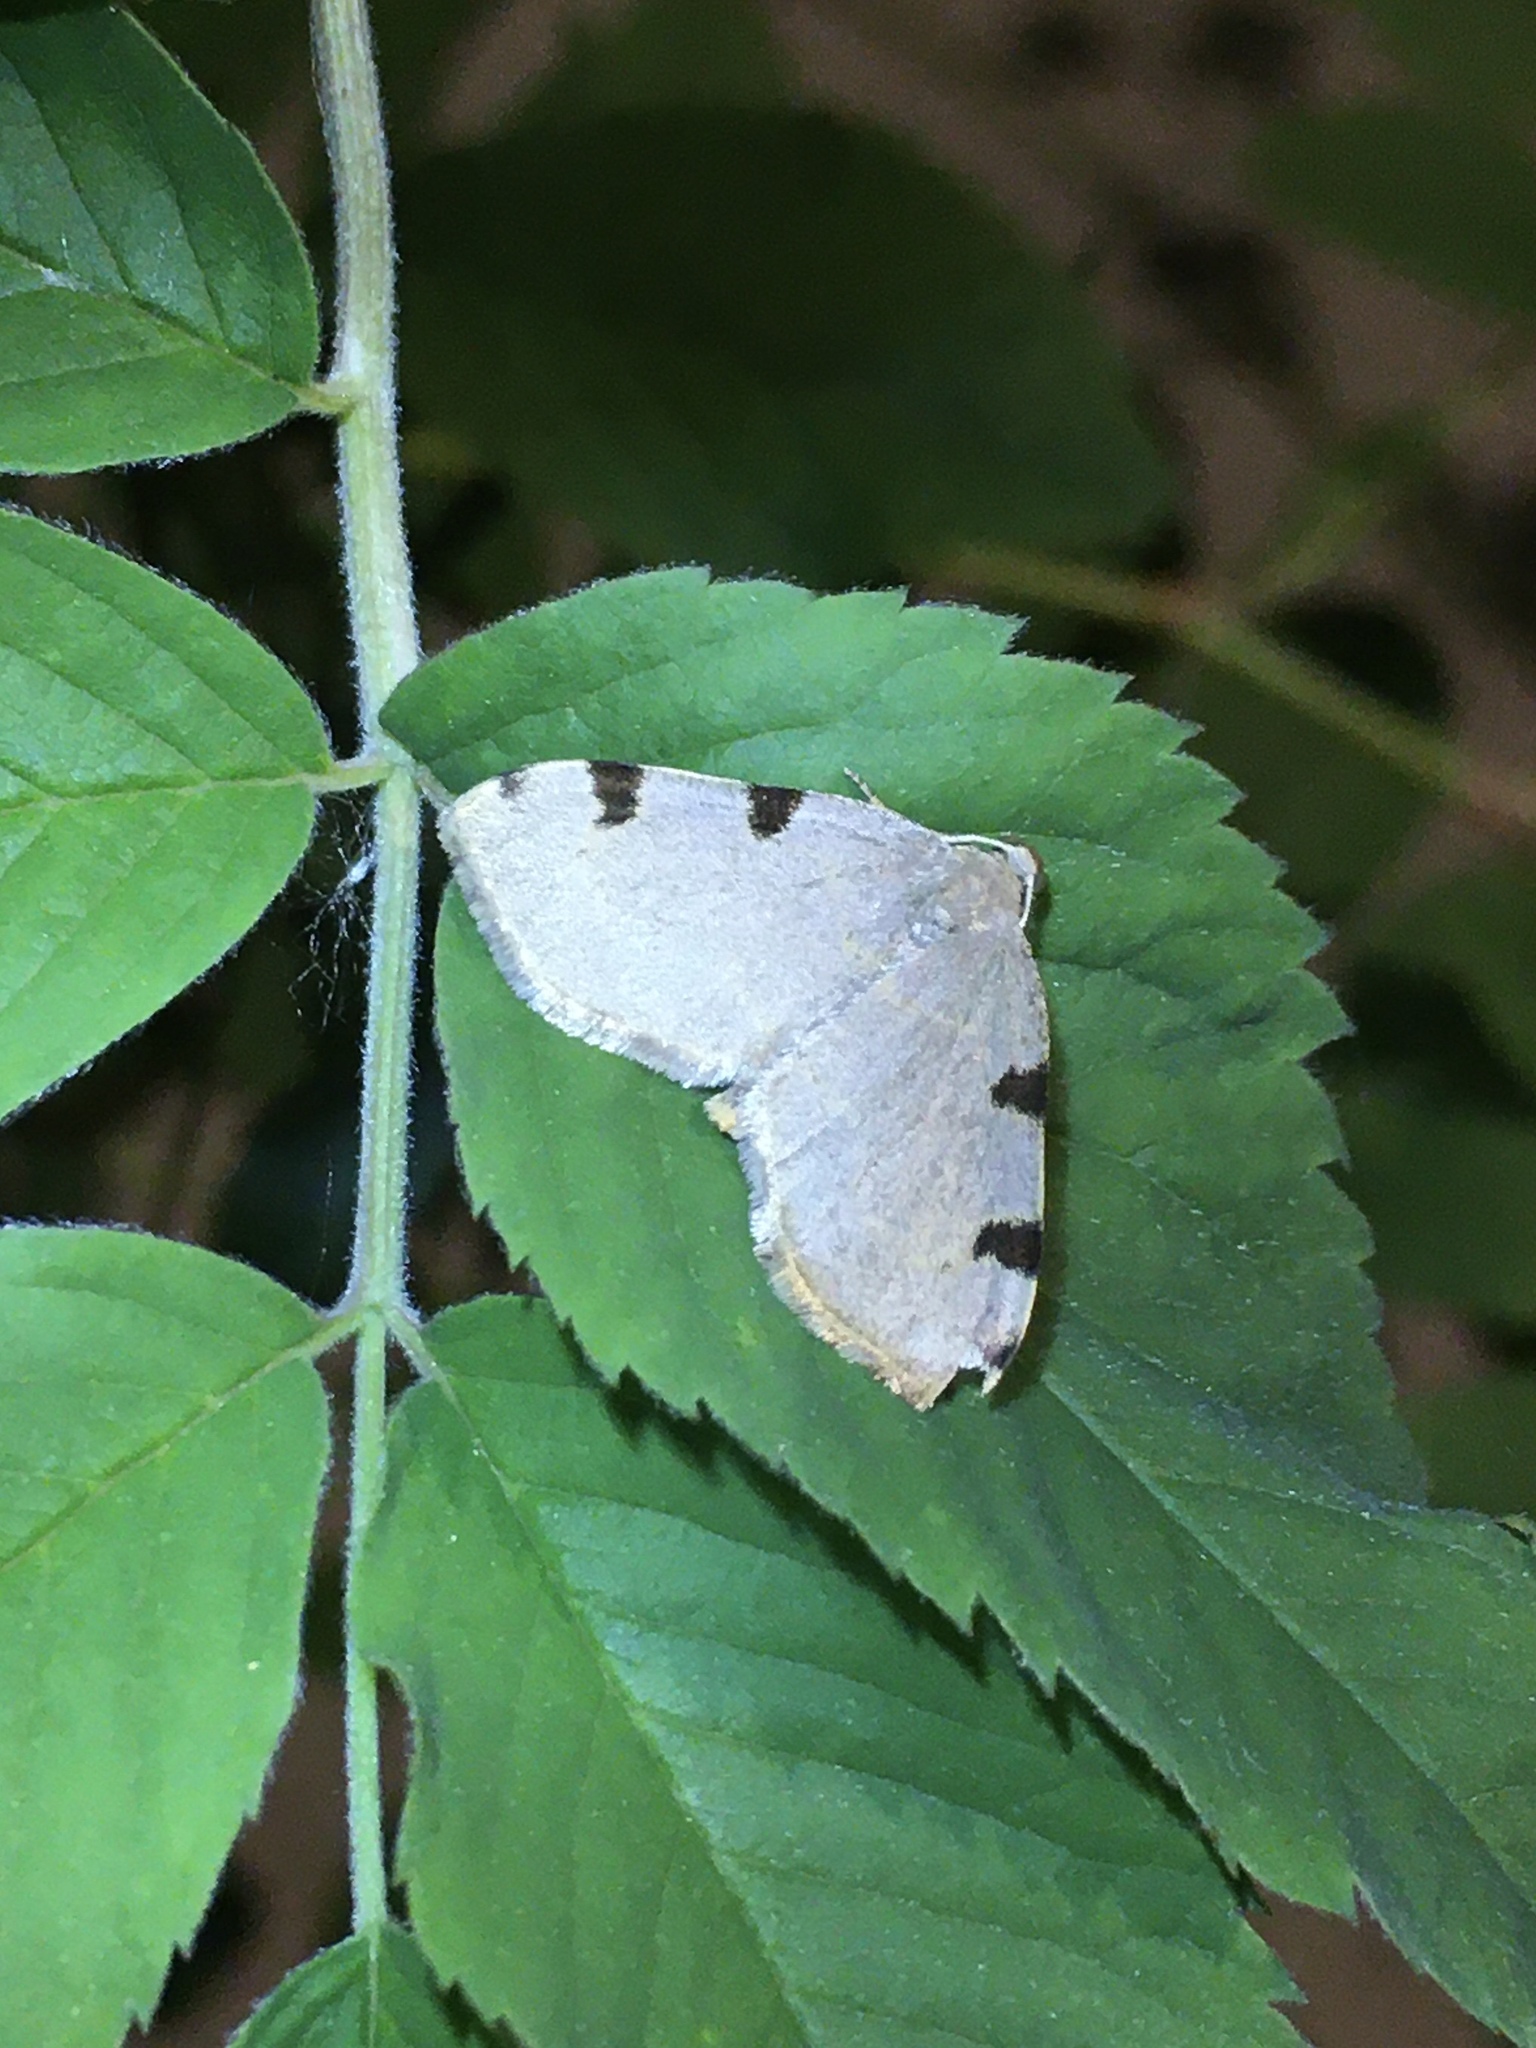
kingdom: Animalia
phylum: Arthropoda
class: Insecta
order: Lepidoptera
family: Geometridae
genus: Heterophleps
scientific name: Heterophleps triguttaria
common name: Three-spotted fillip
